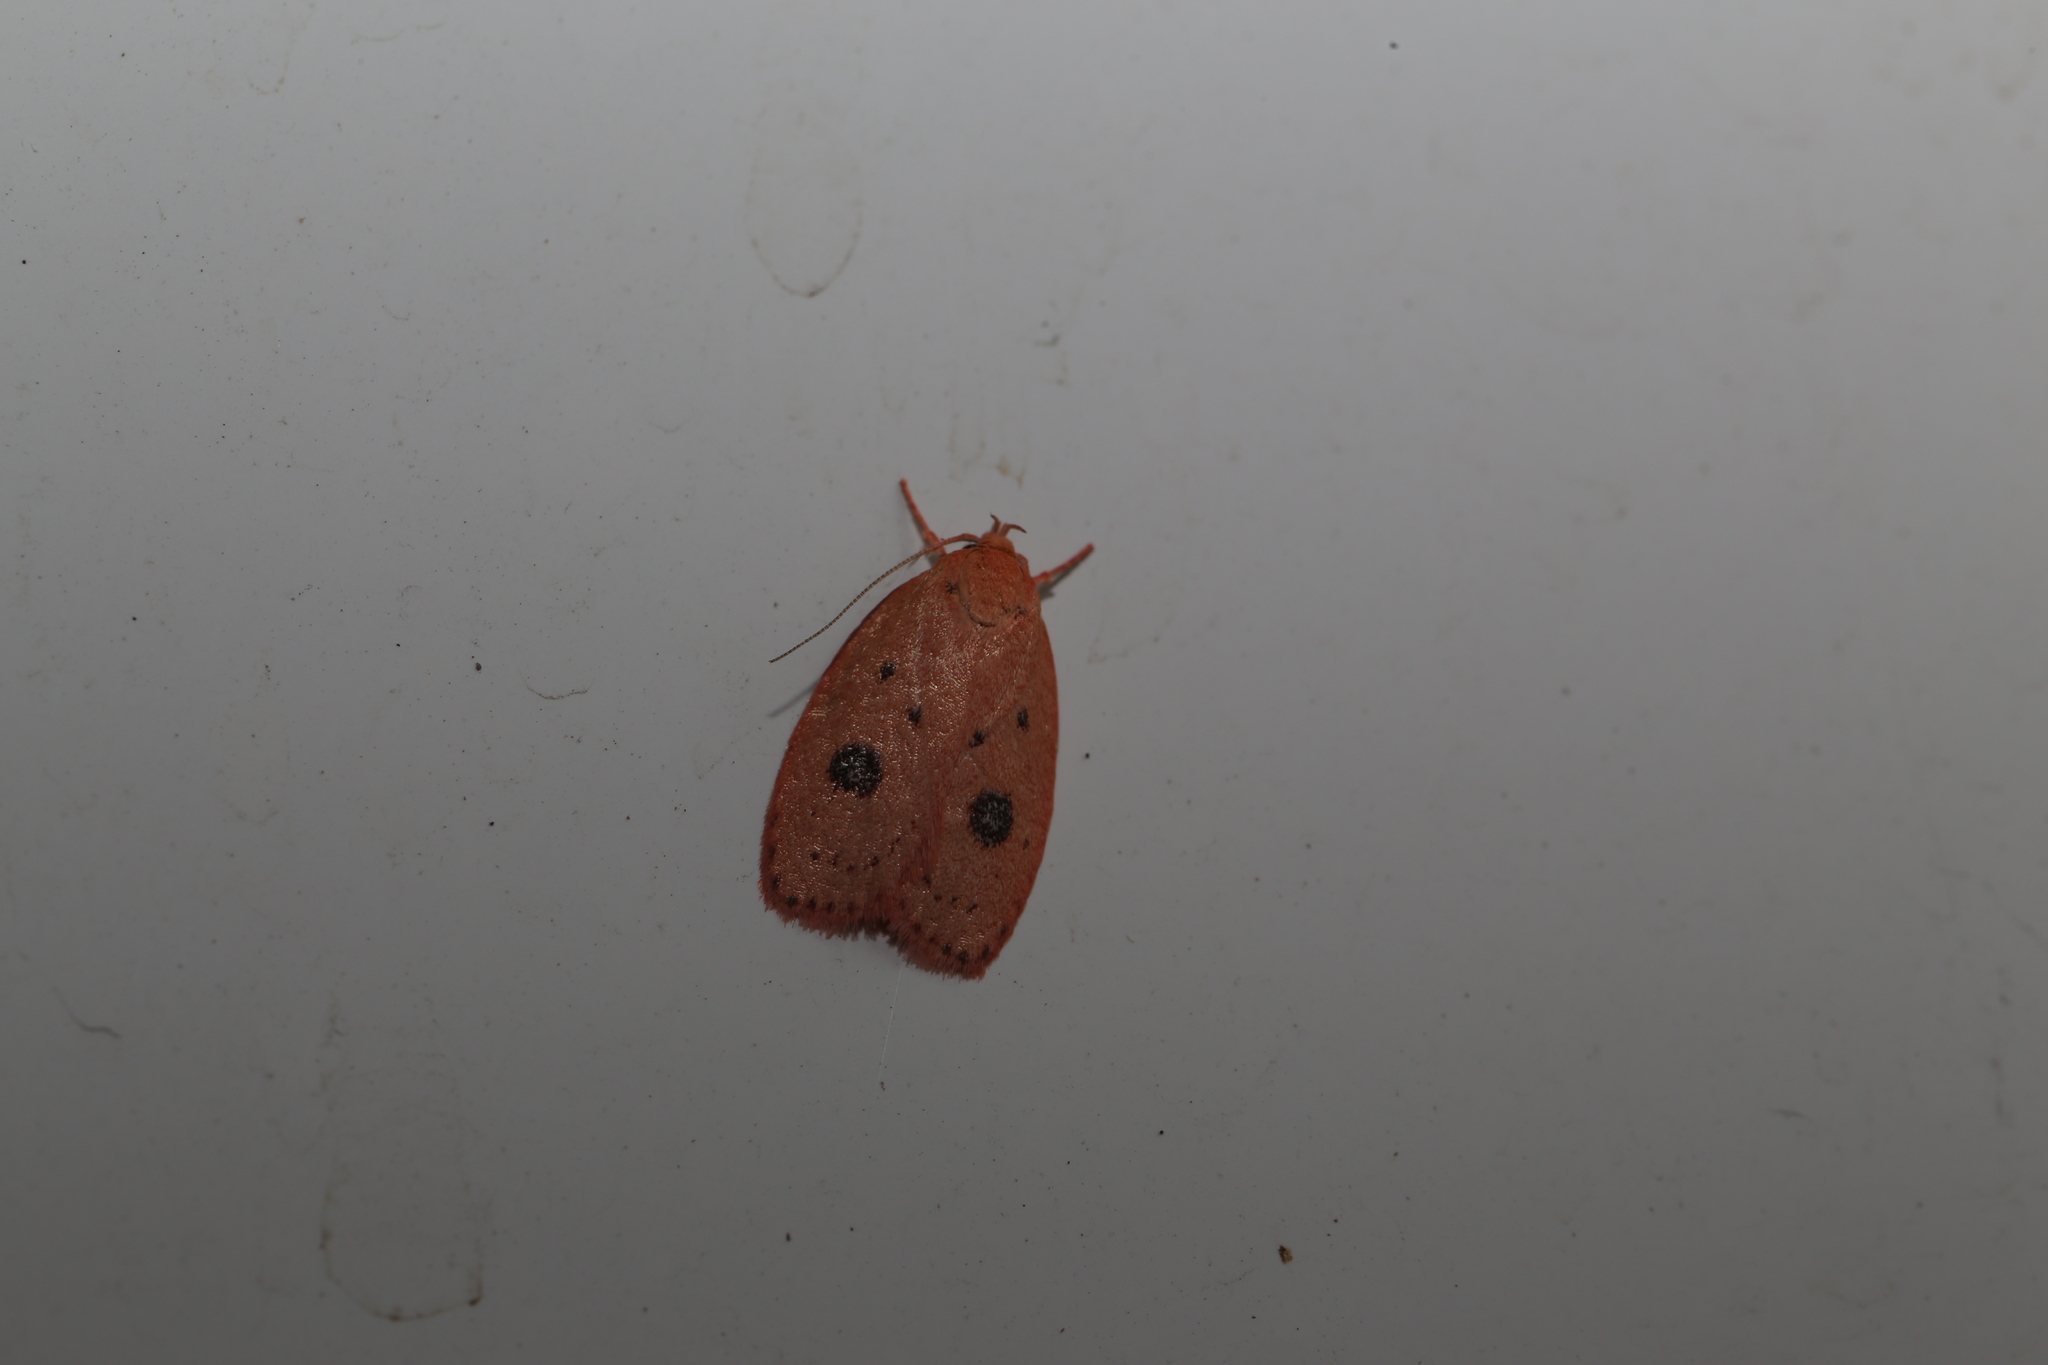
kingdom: Animalia
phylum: Arthropoda
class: Insecta
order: Lepidoptera
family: Oecophoridae
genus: Garrha
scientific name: Garrha pudica
